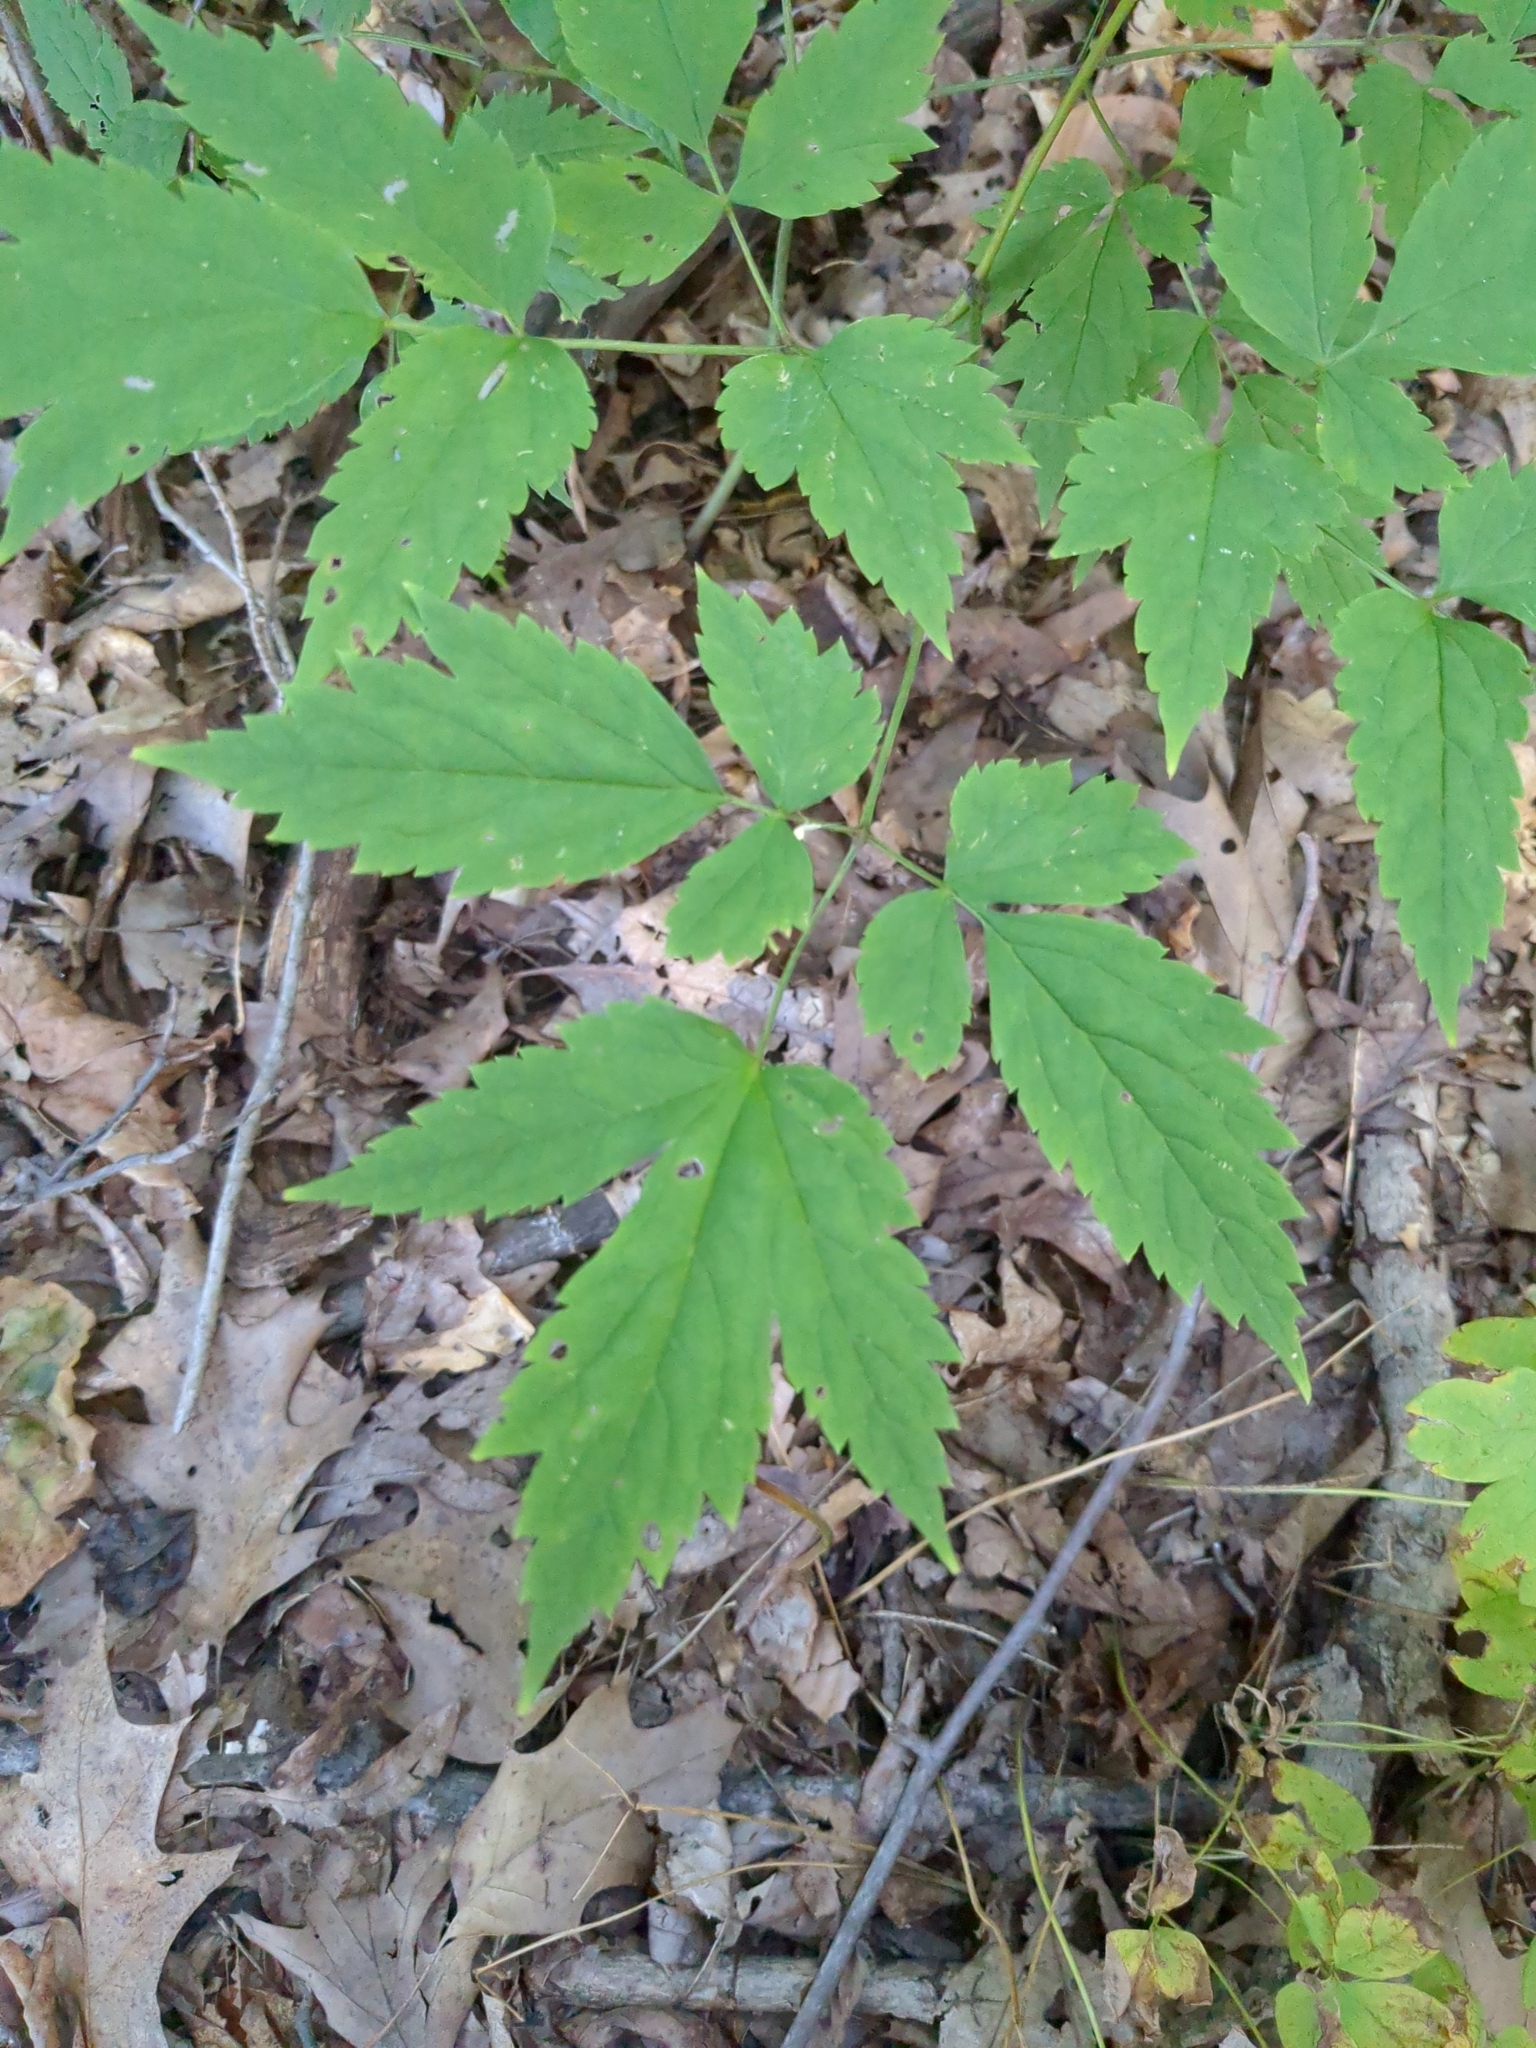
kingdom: Plantae
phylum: Tracheophyta
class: Magnoliopsida
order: Ranunculales
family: Ranunculaceae
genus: Actaea
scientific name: Actaea pachypoda
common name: Doll's-eyes
